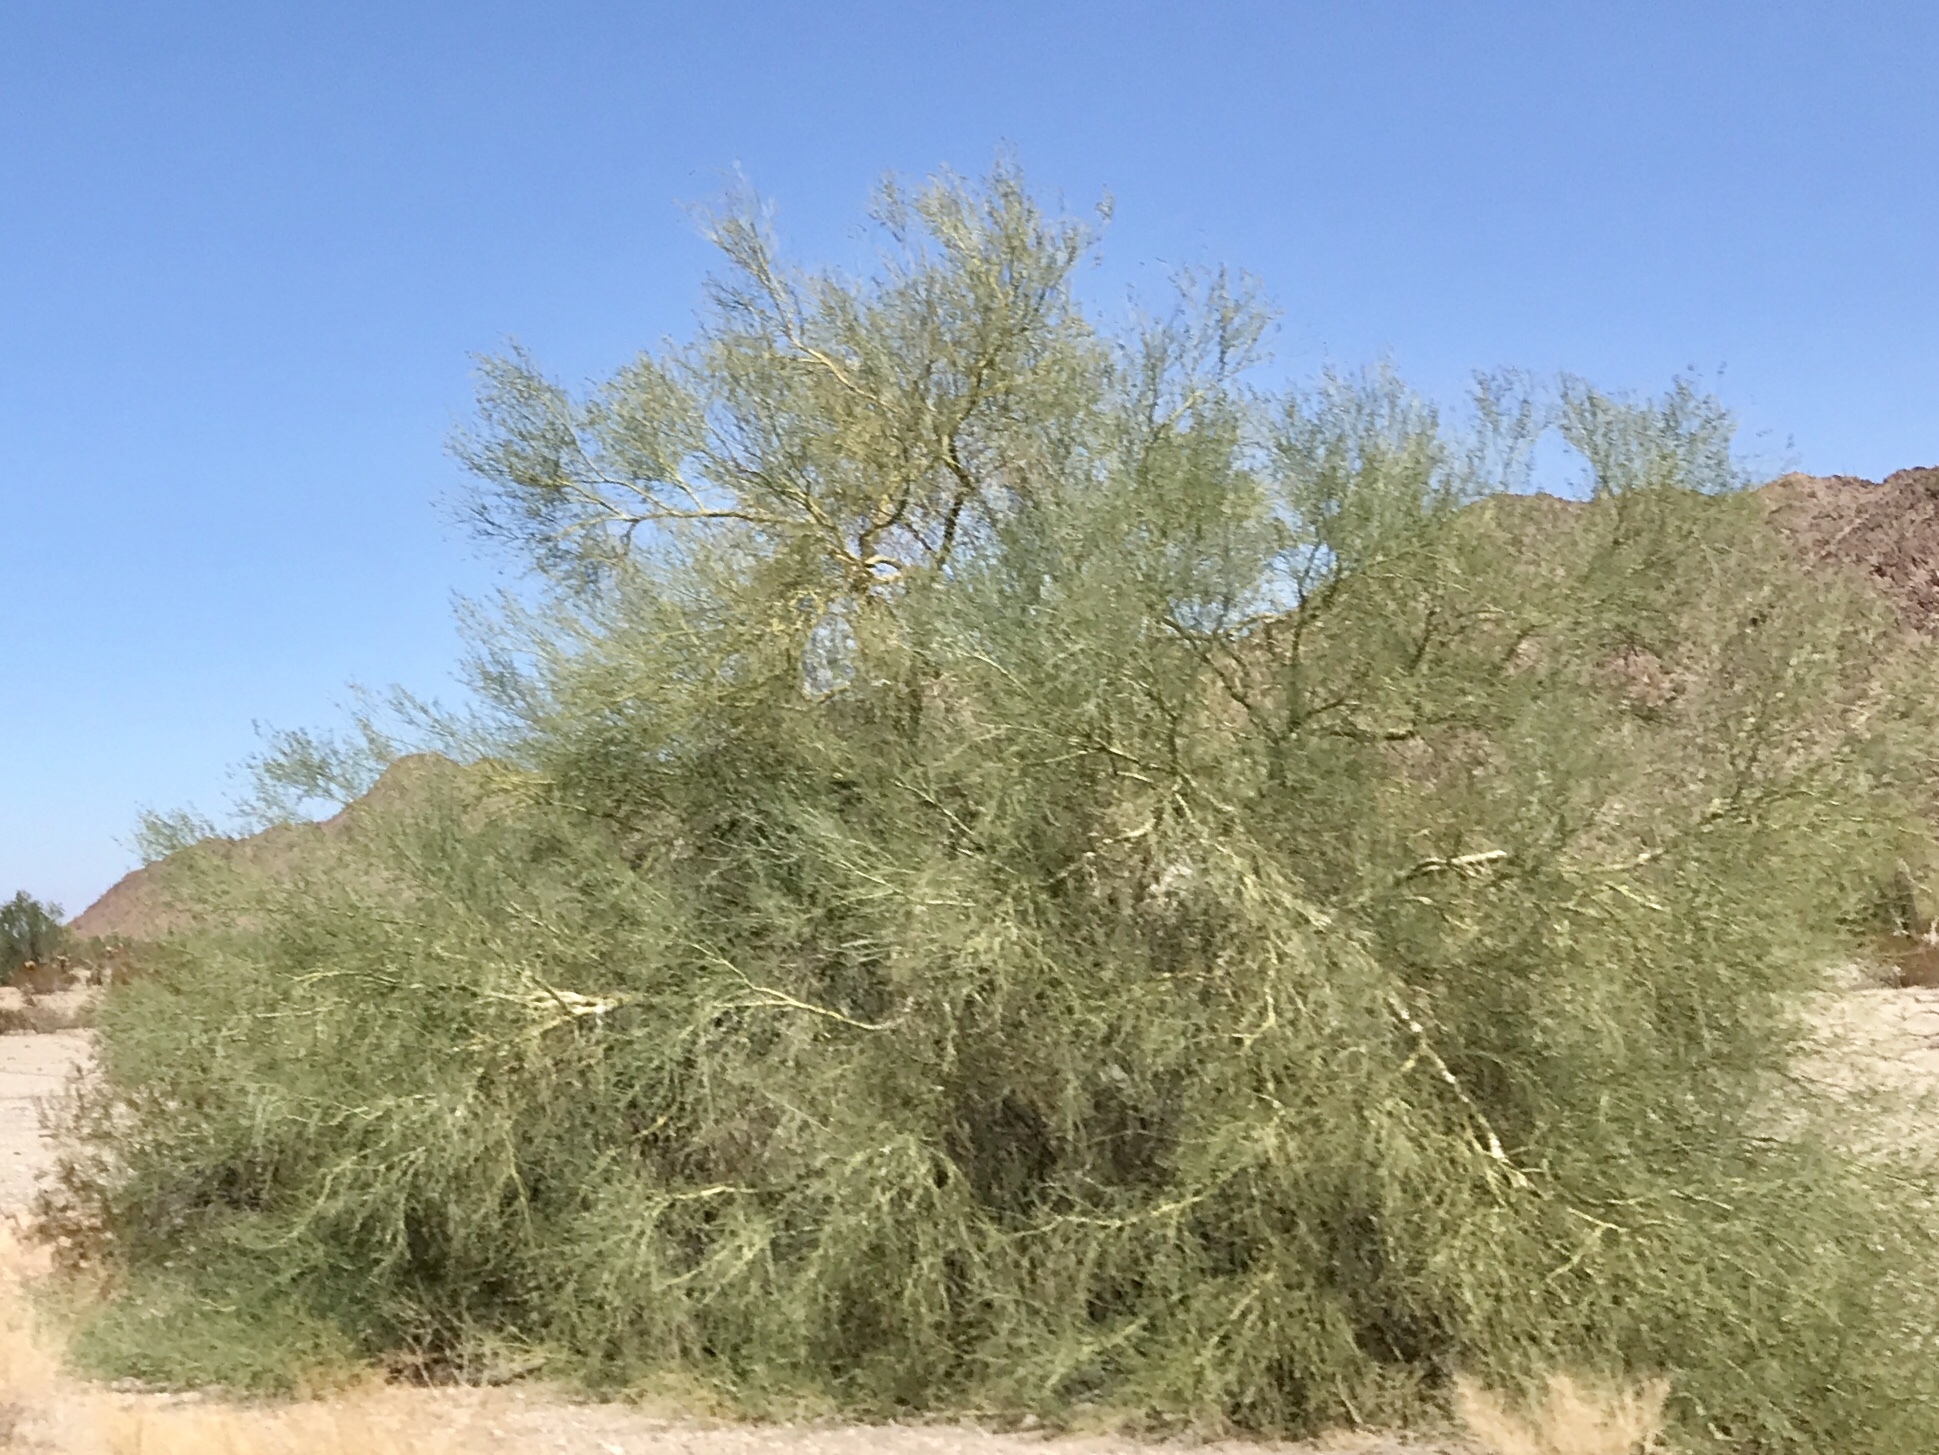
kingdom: Plantae
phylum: Tracheophyta
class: Magnoliopsida
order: Fabales
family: Fabaceae
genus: Parkinsonia
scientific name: Parkinsonia florida
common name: Blue paloverde
